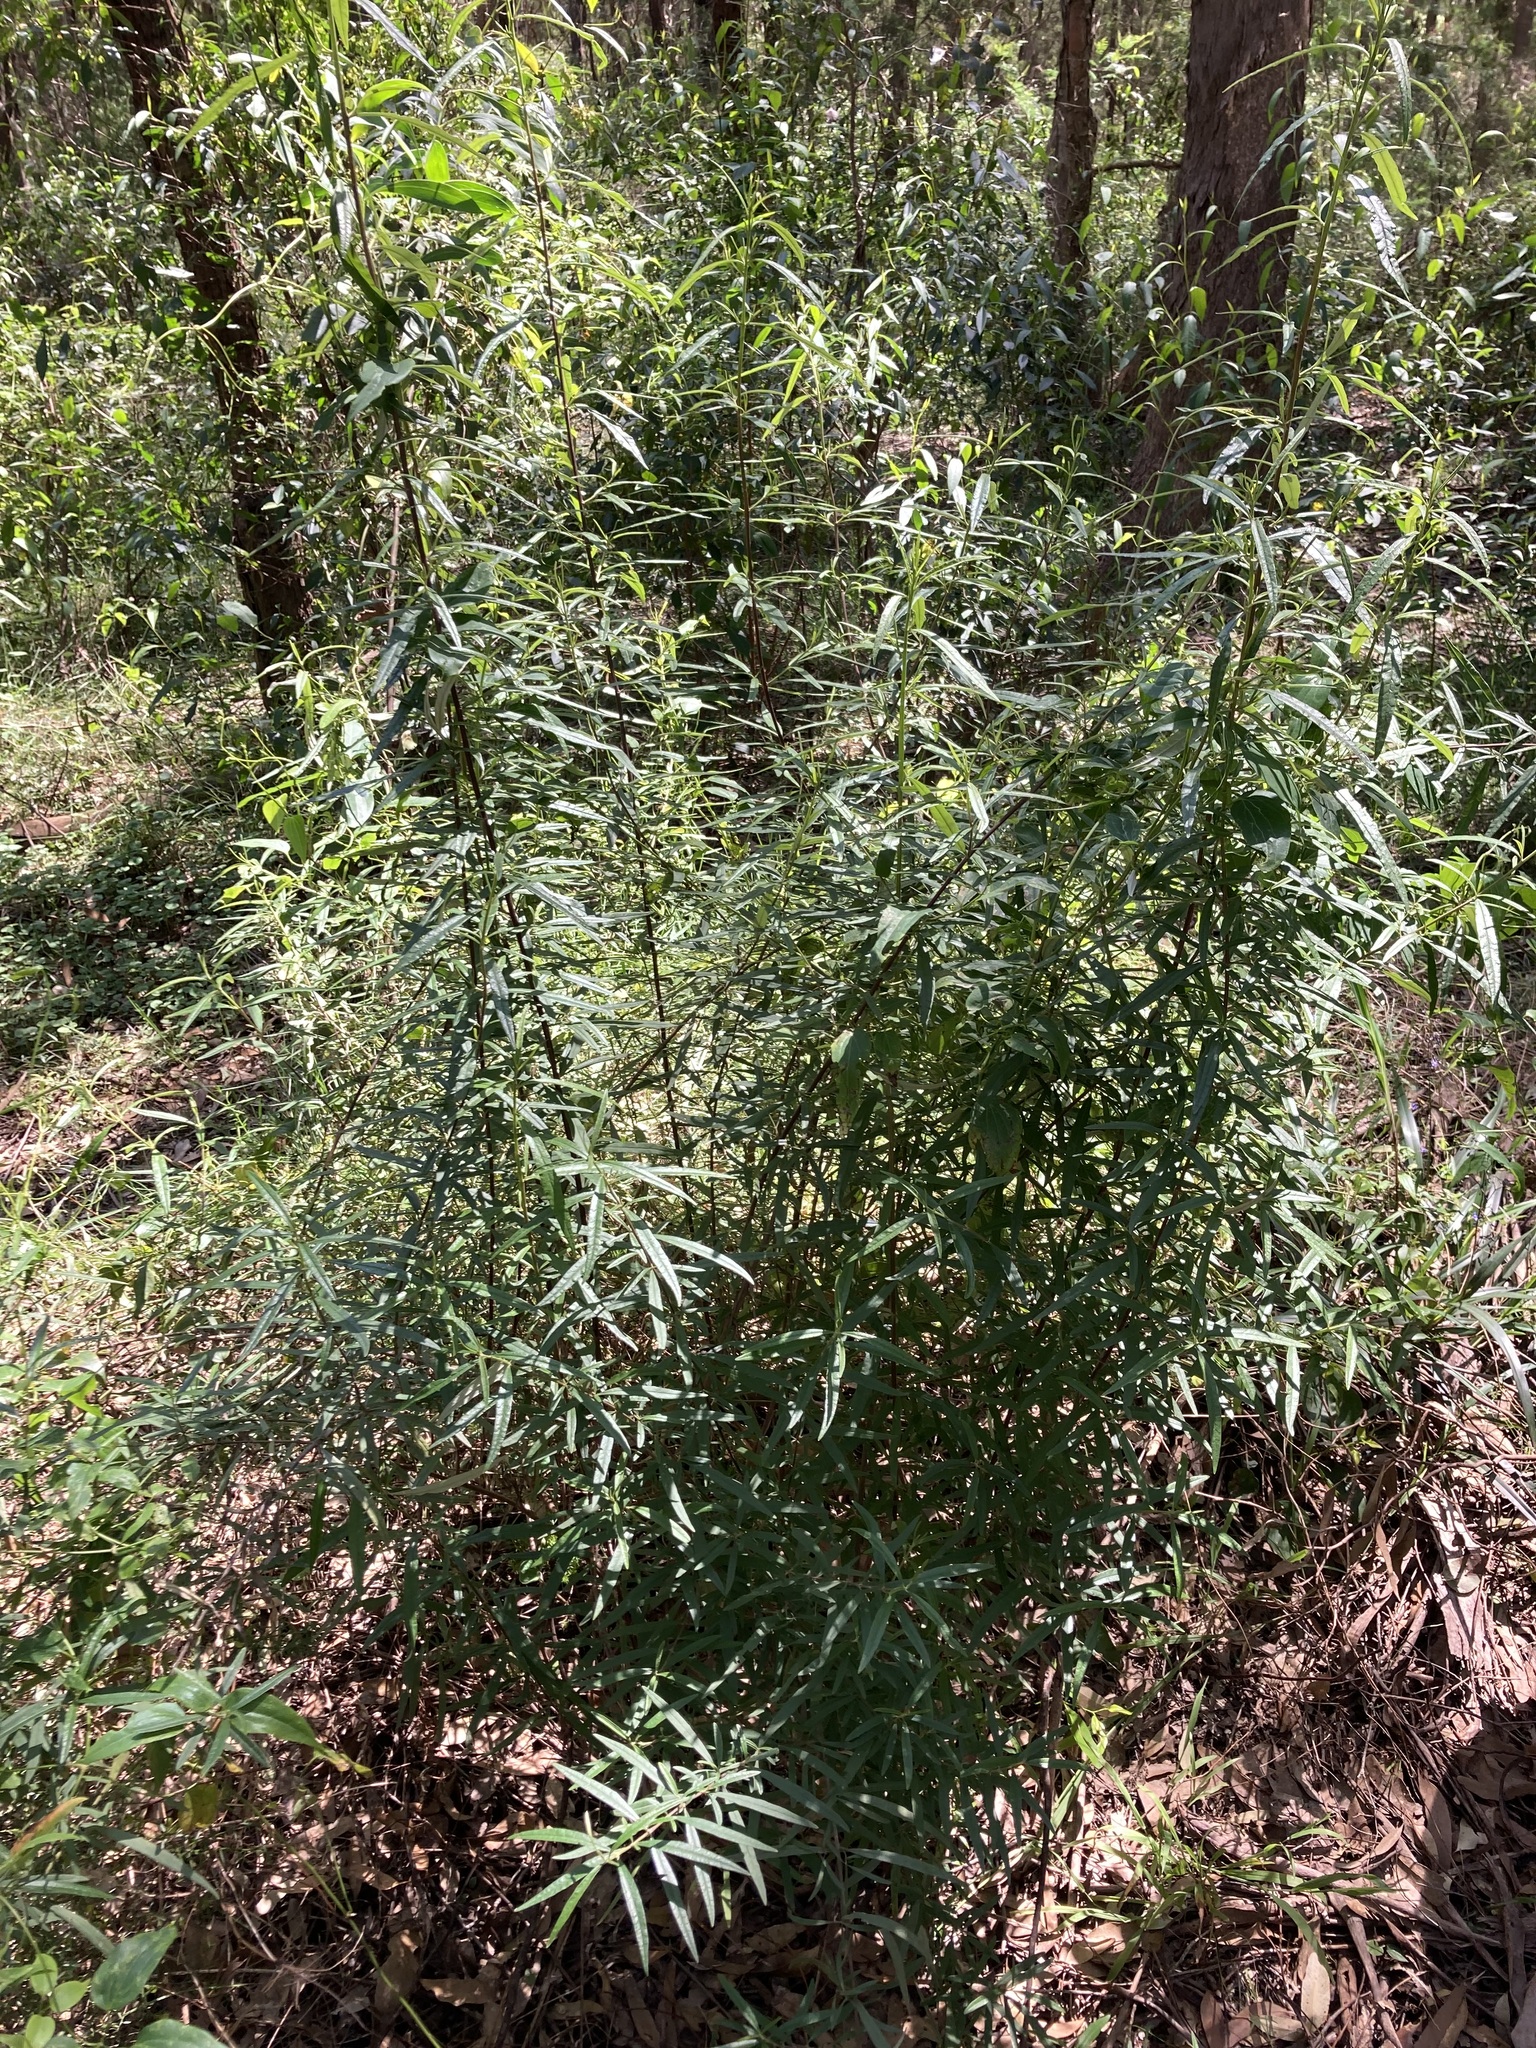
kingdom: Plantae
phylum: Tracheophyta
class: Magnoliopsida
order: Asterales
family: Asteraceae
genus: Olearia
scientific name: Olearia viscidula
